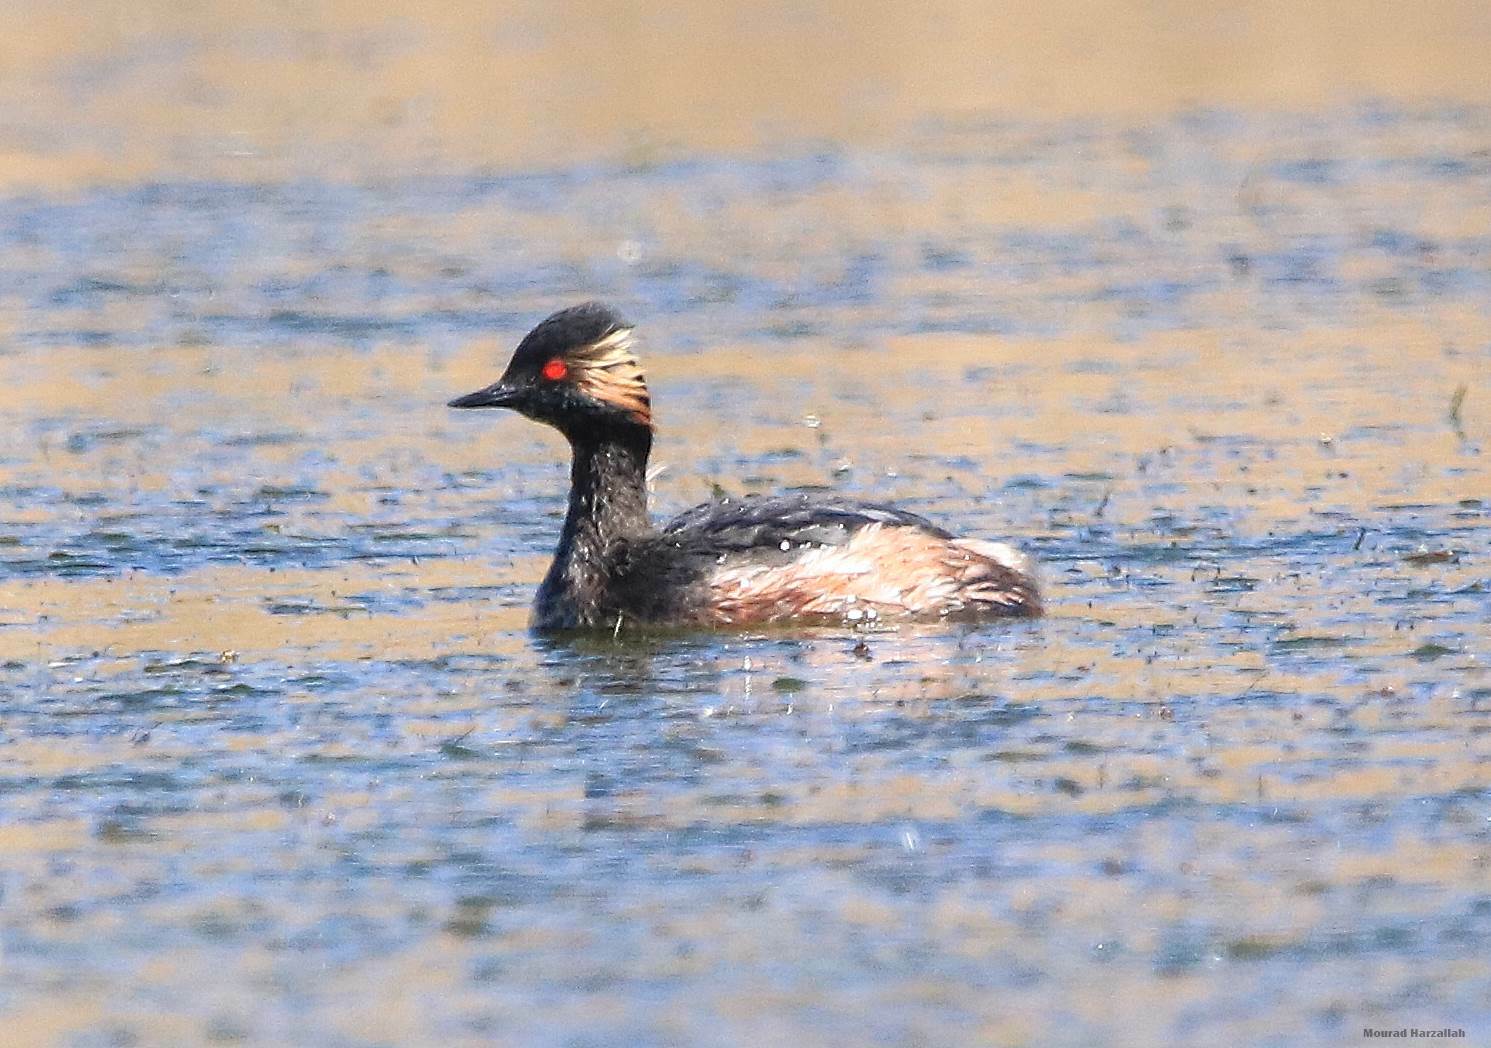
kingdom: Animalia
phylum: Chordata
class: Aves
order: Podicipediformes
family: Podicipedidae
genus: Podiceps
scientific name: Podiceps nigricollis
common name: Black-necked grebe
